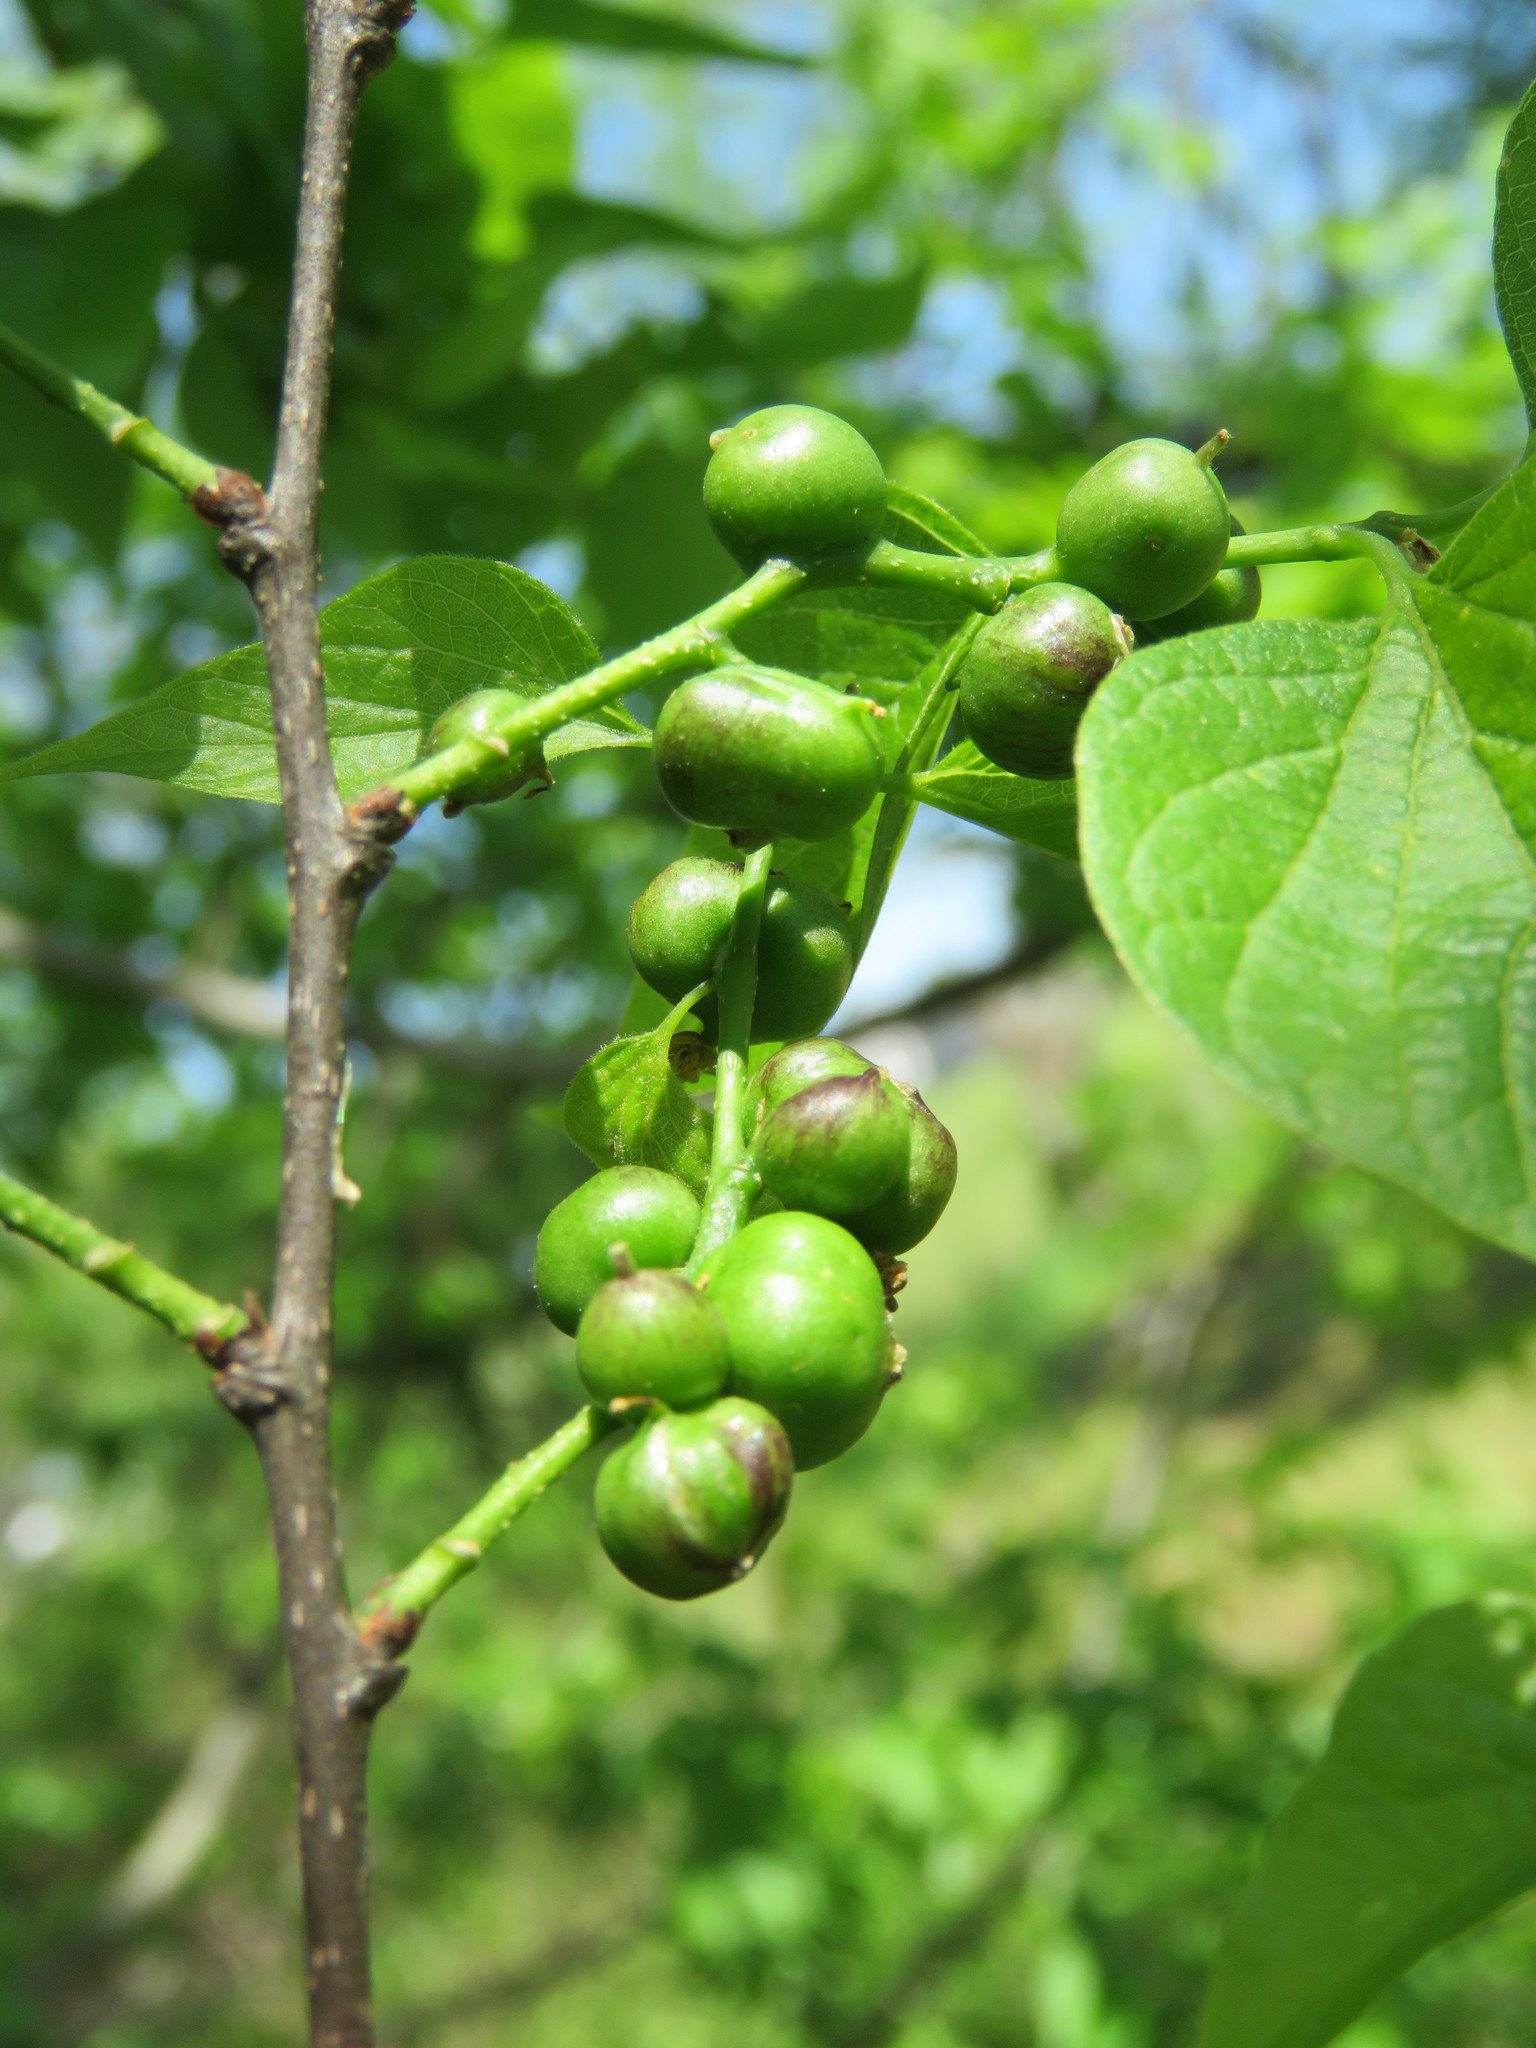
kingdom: Animalia
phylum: Arthropoda
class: Insecta
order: Diptera
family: Cecidomyiidae
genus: Celticecis
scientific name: Celticecis connata
